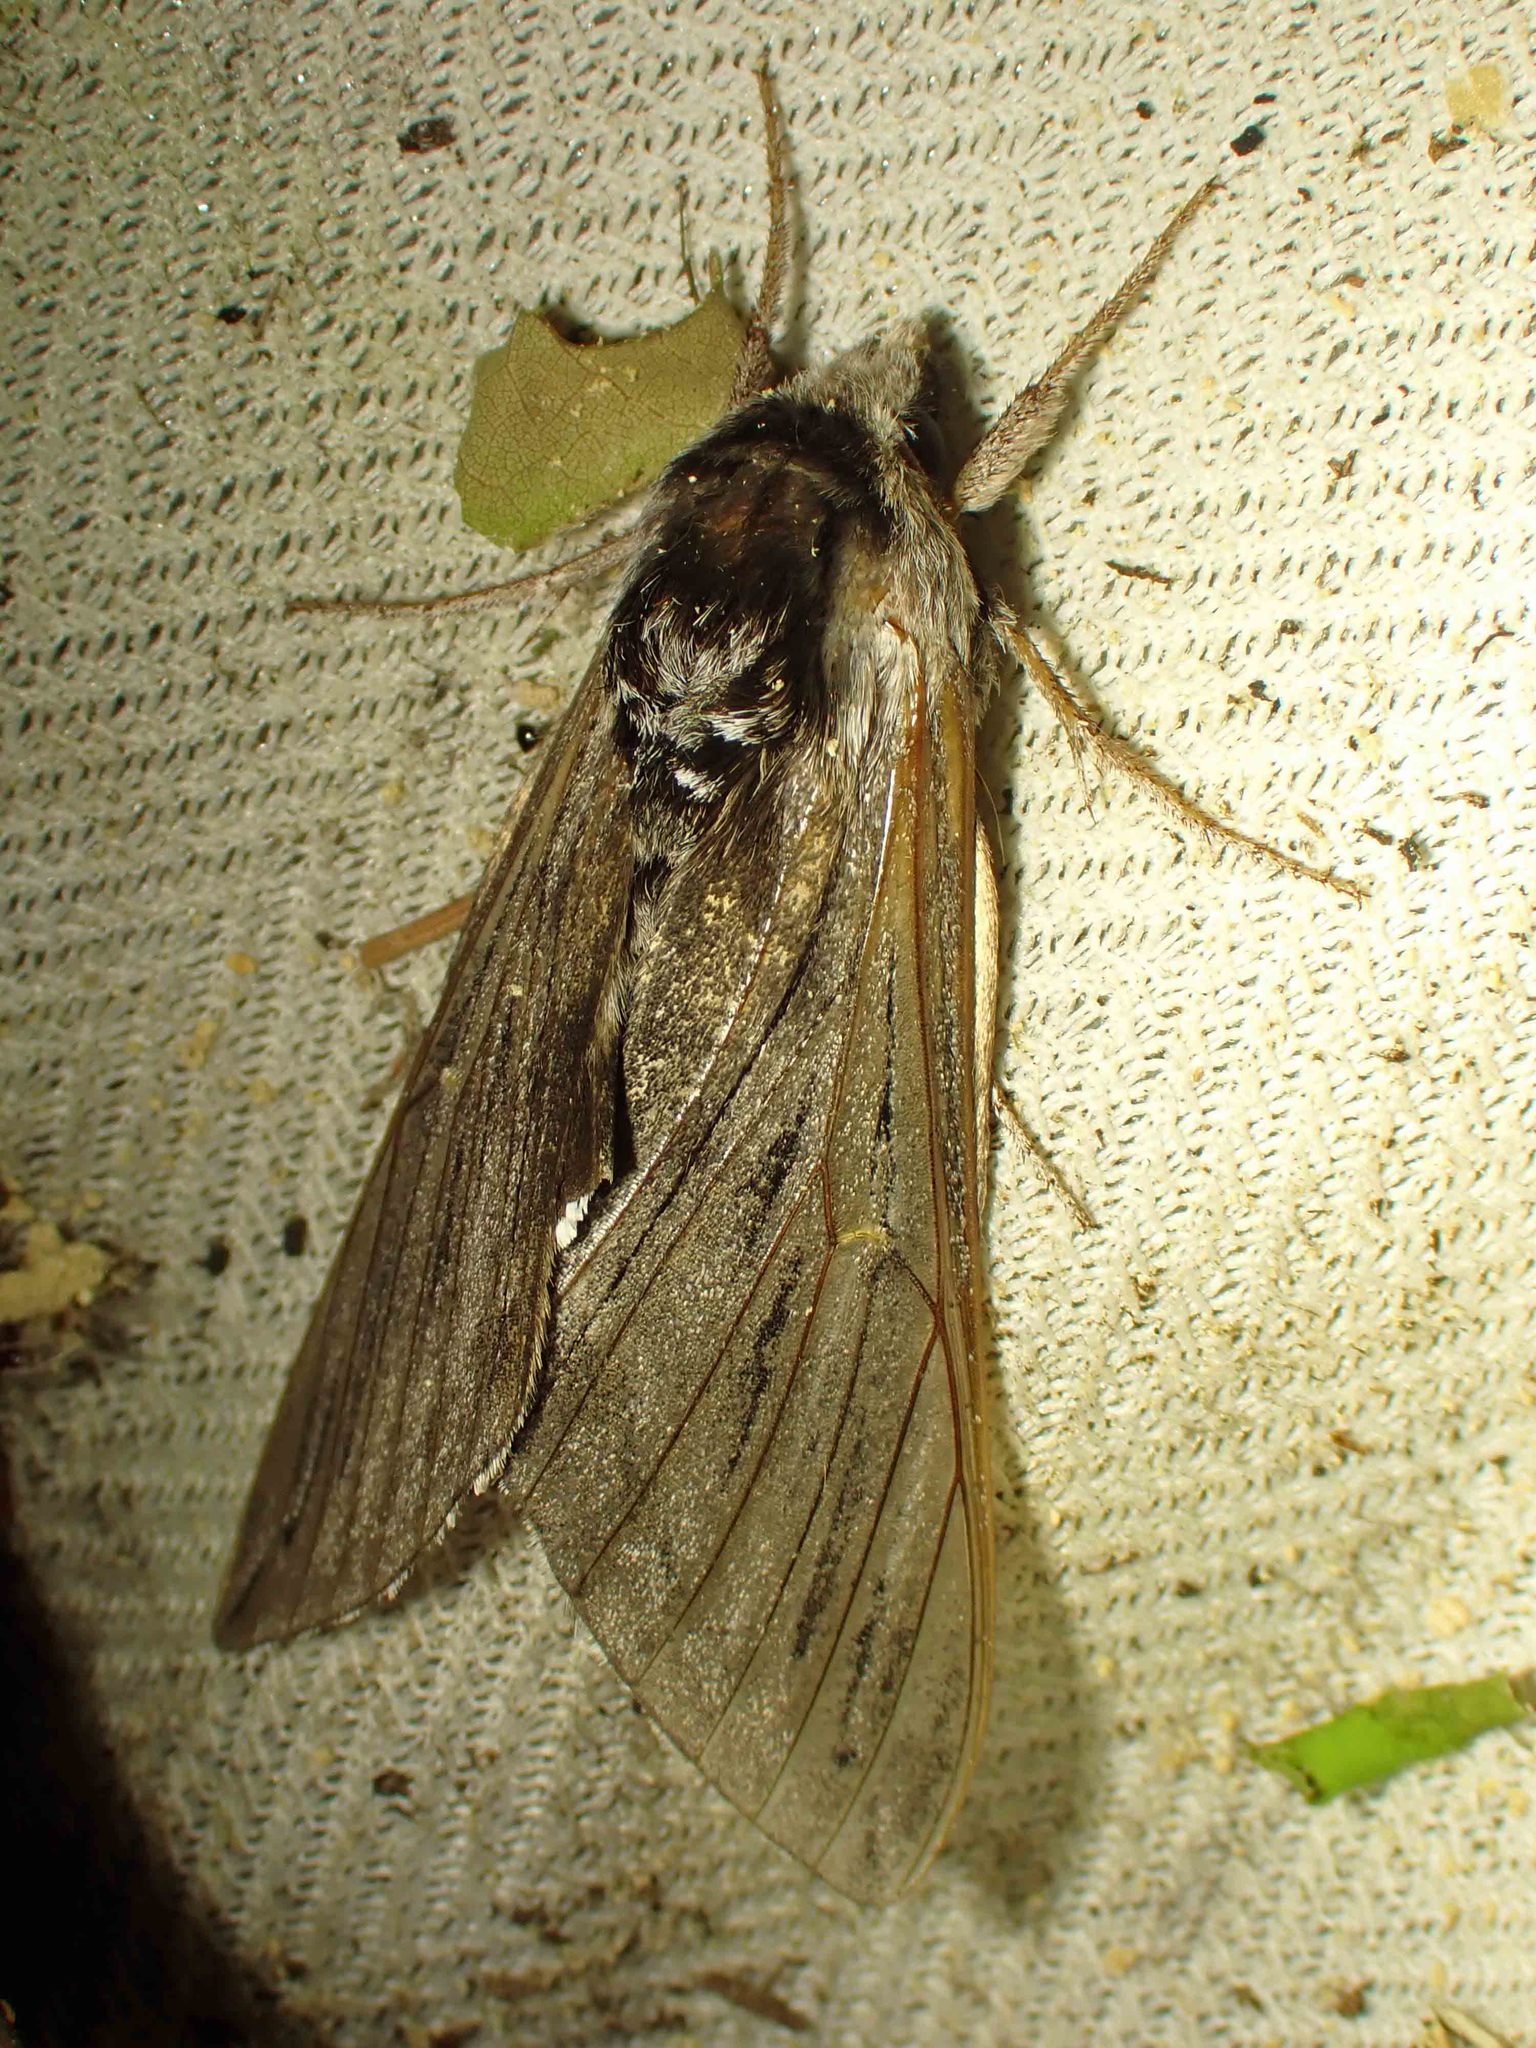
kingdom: Animalia
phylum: Arthropoda
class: Insecta
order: Lepidoptera
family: Sphingidae
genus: Sphinx
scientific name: Sphinx poecila
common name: Northern apple sphinx
